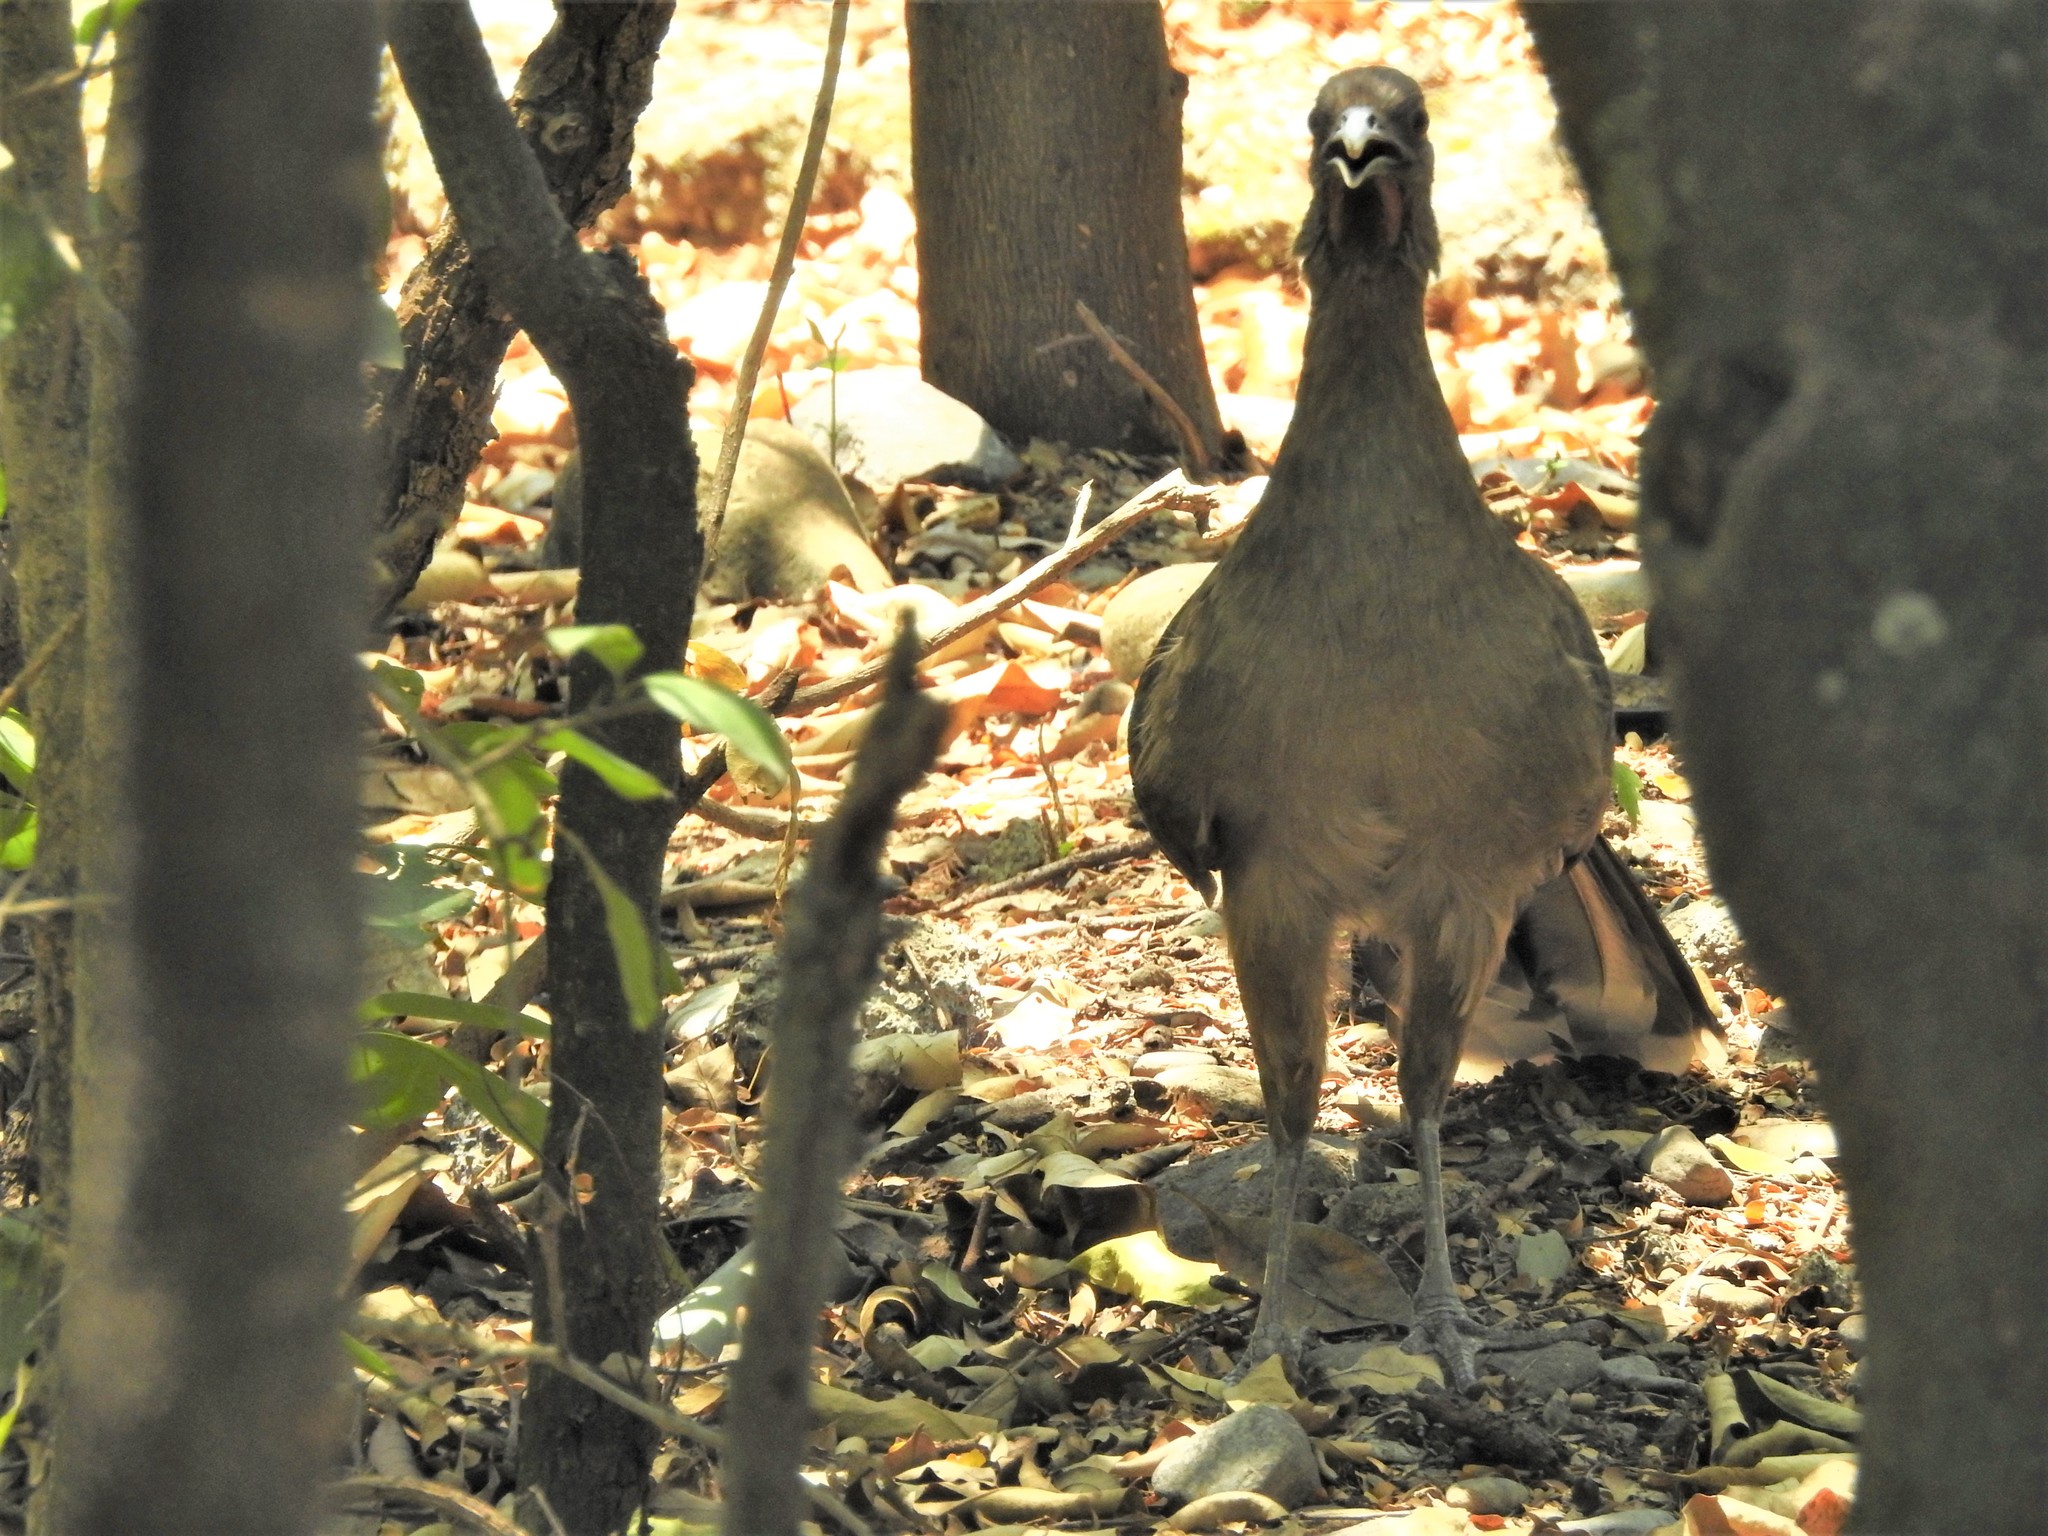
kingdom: Animalia
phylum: Chordata
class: Aves
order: Galliformes
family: Cracidae
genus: Ortalis
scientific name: Ortalis vetula
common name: Plain chachalaca
